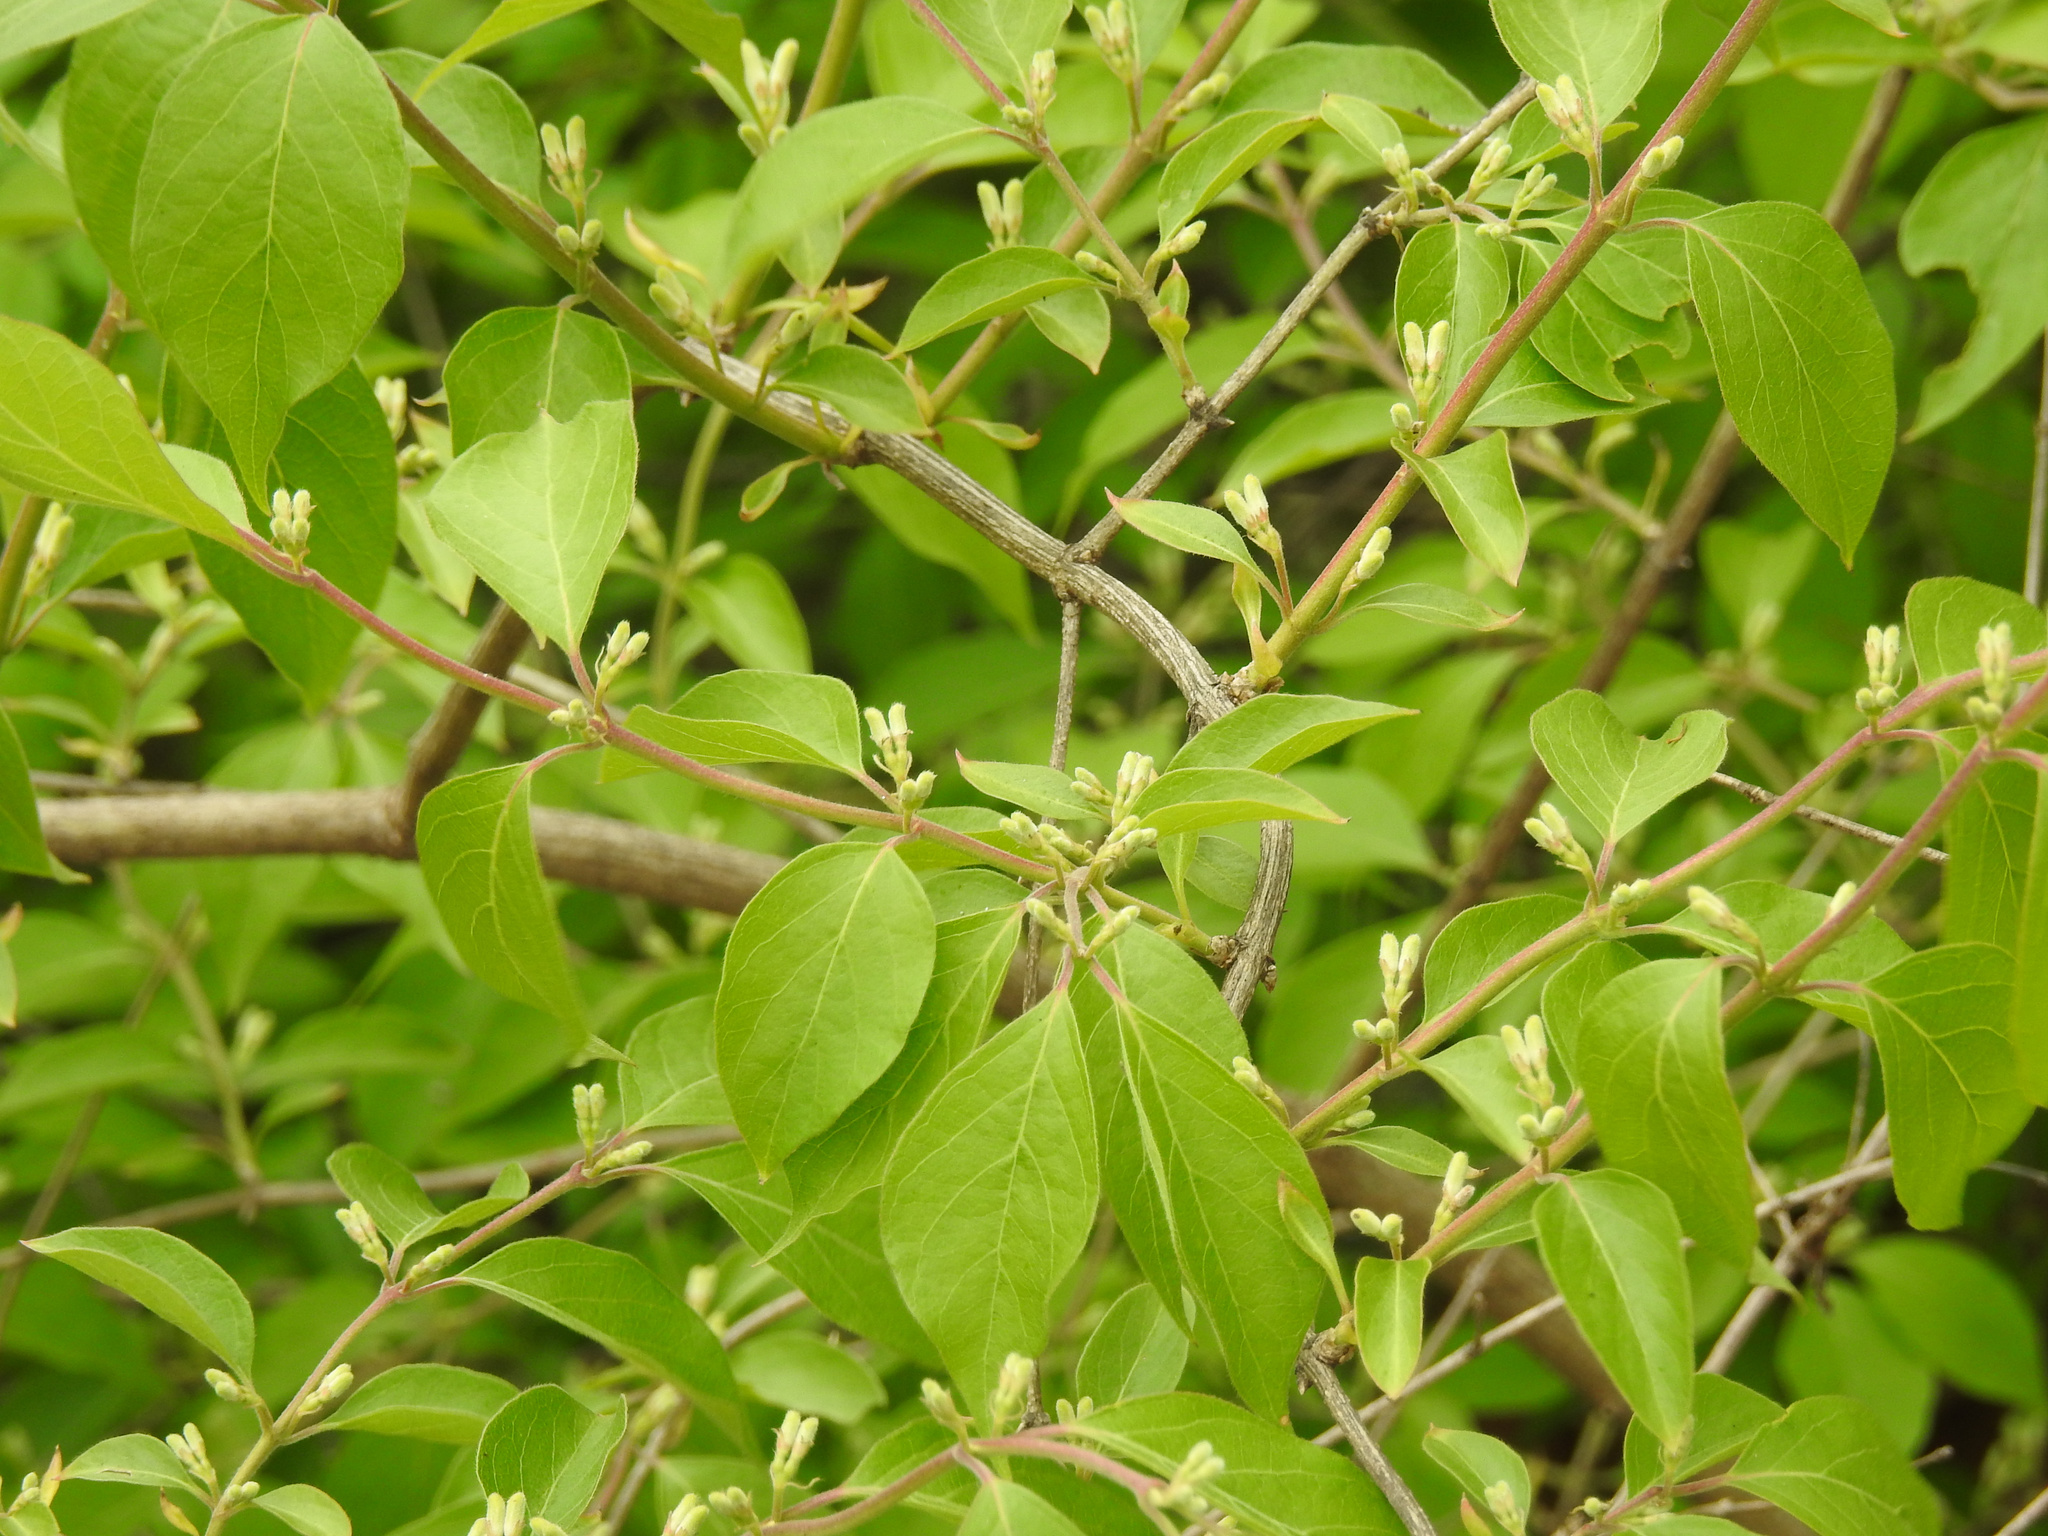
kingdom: Plantae
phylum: Tracheophyta
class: Magnoliopsida
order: Dipsacales
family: Caprifoliaceae
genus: Lonicera
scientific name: Lonicera maackii
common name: Amur honeysuckle
